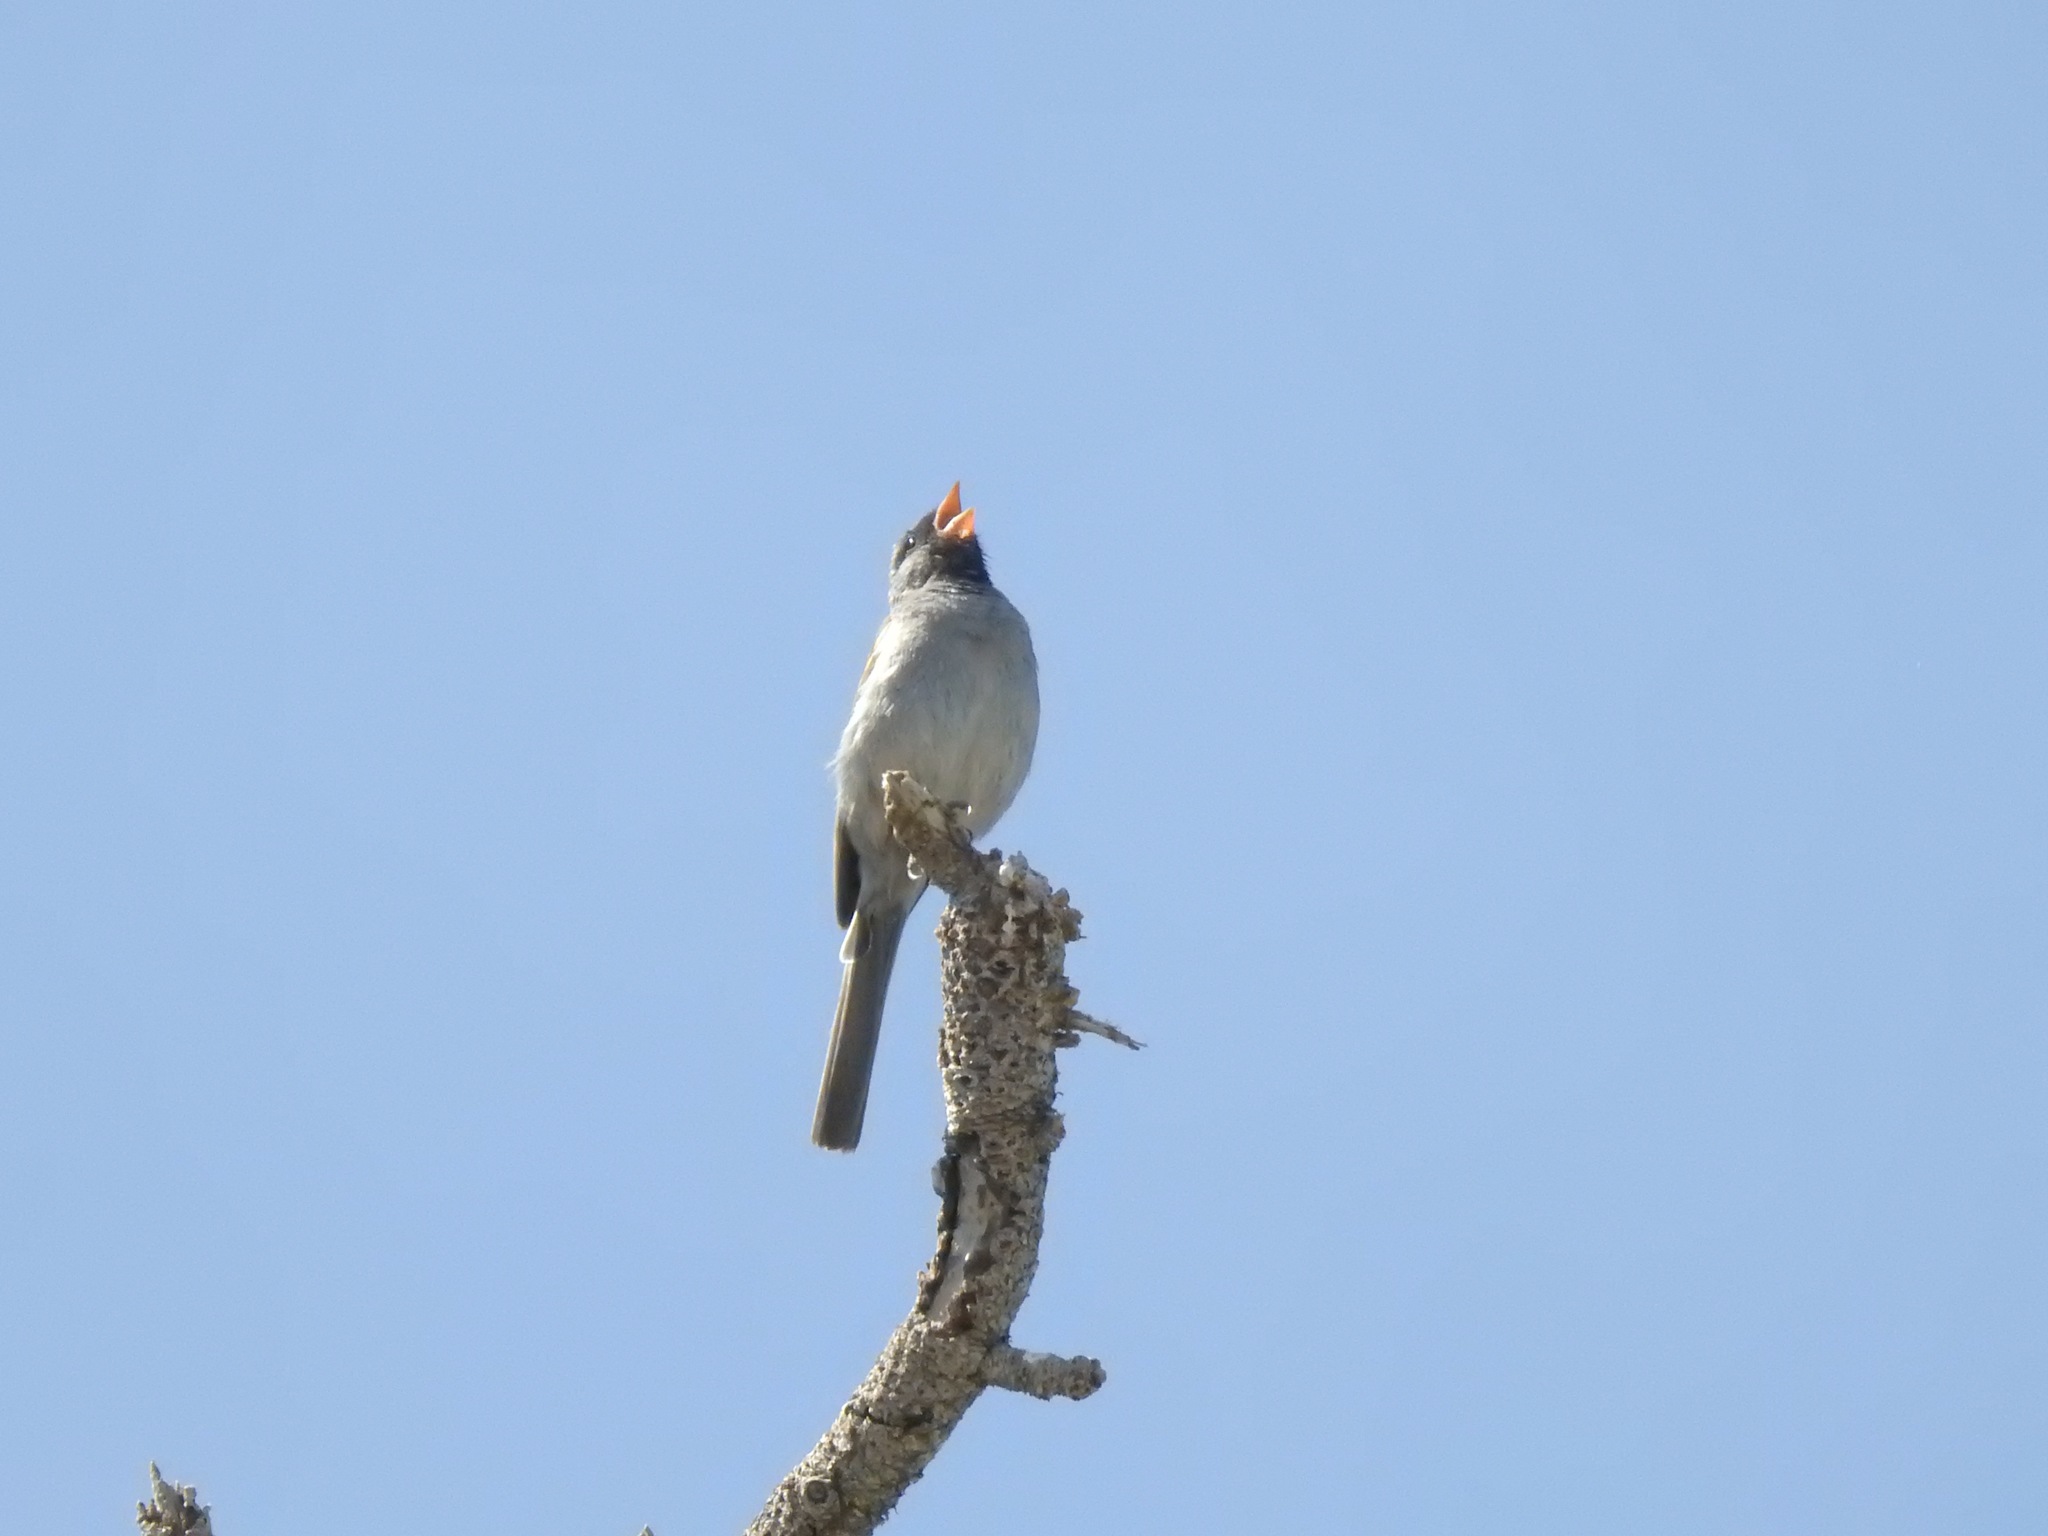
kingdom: Animalia
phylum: Chordata
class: Aves
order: Passeriformes
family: Passerellidae
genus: Spizella
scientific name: Spizella atrogularis
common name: Black-chinned sparrow
